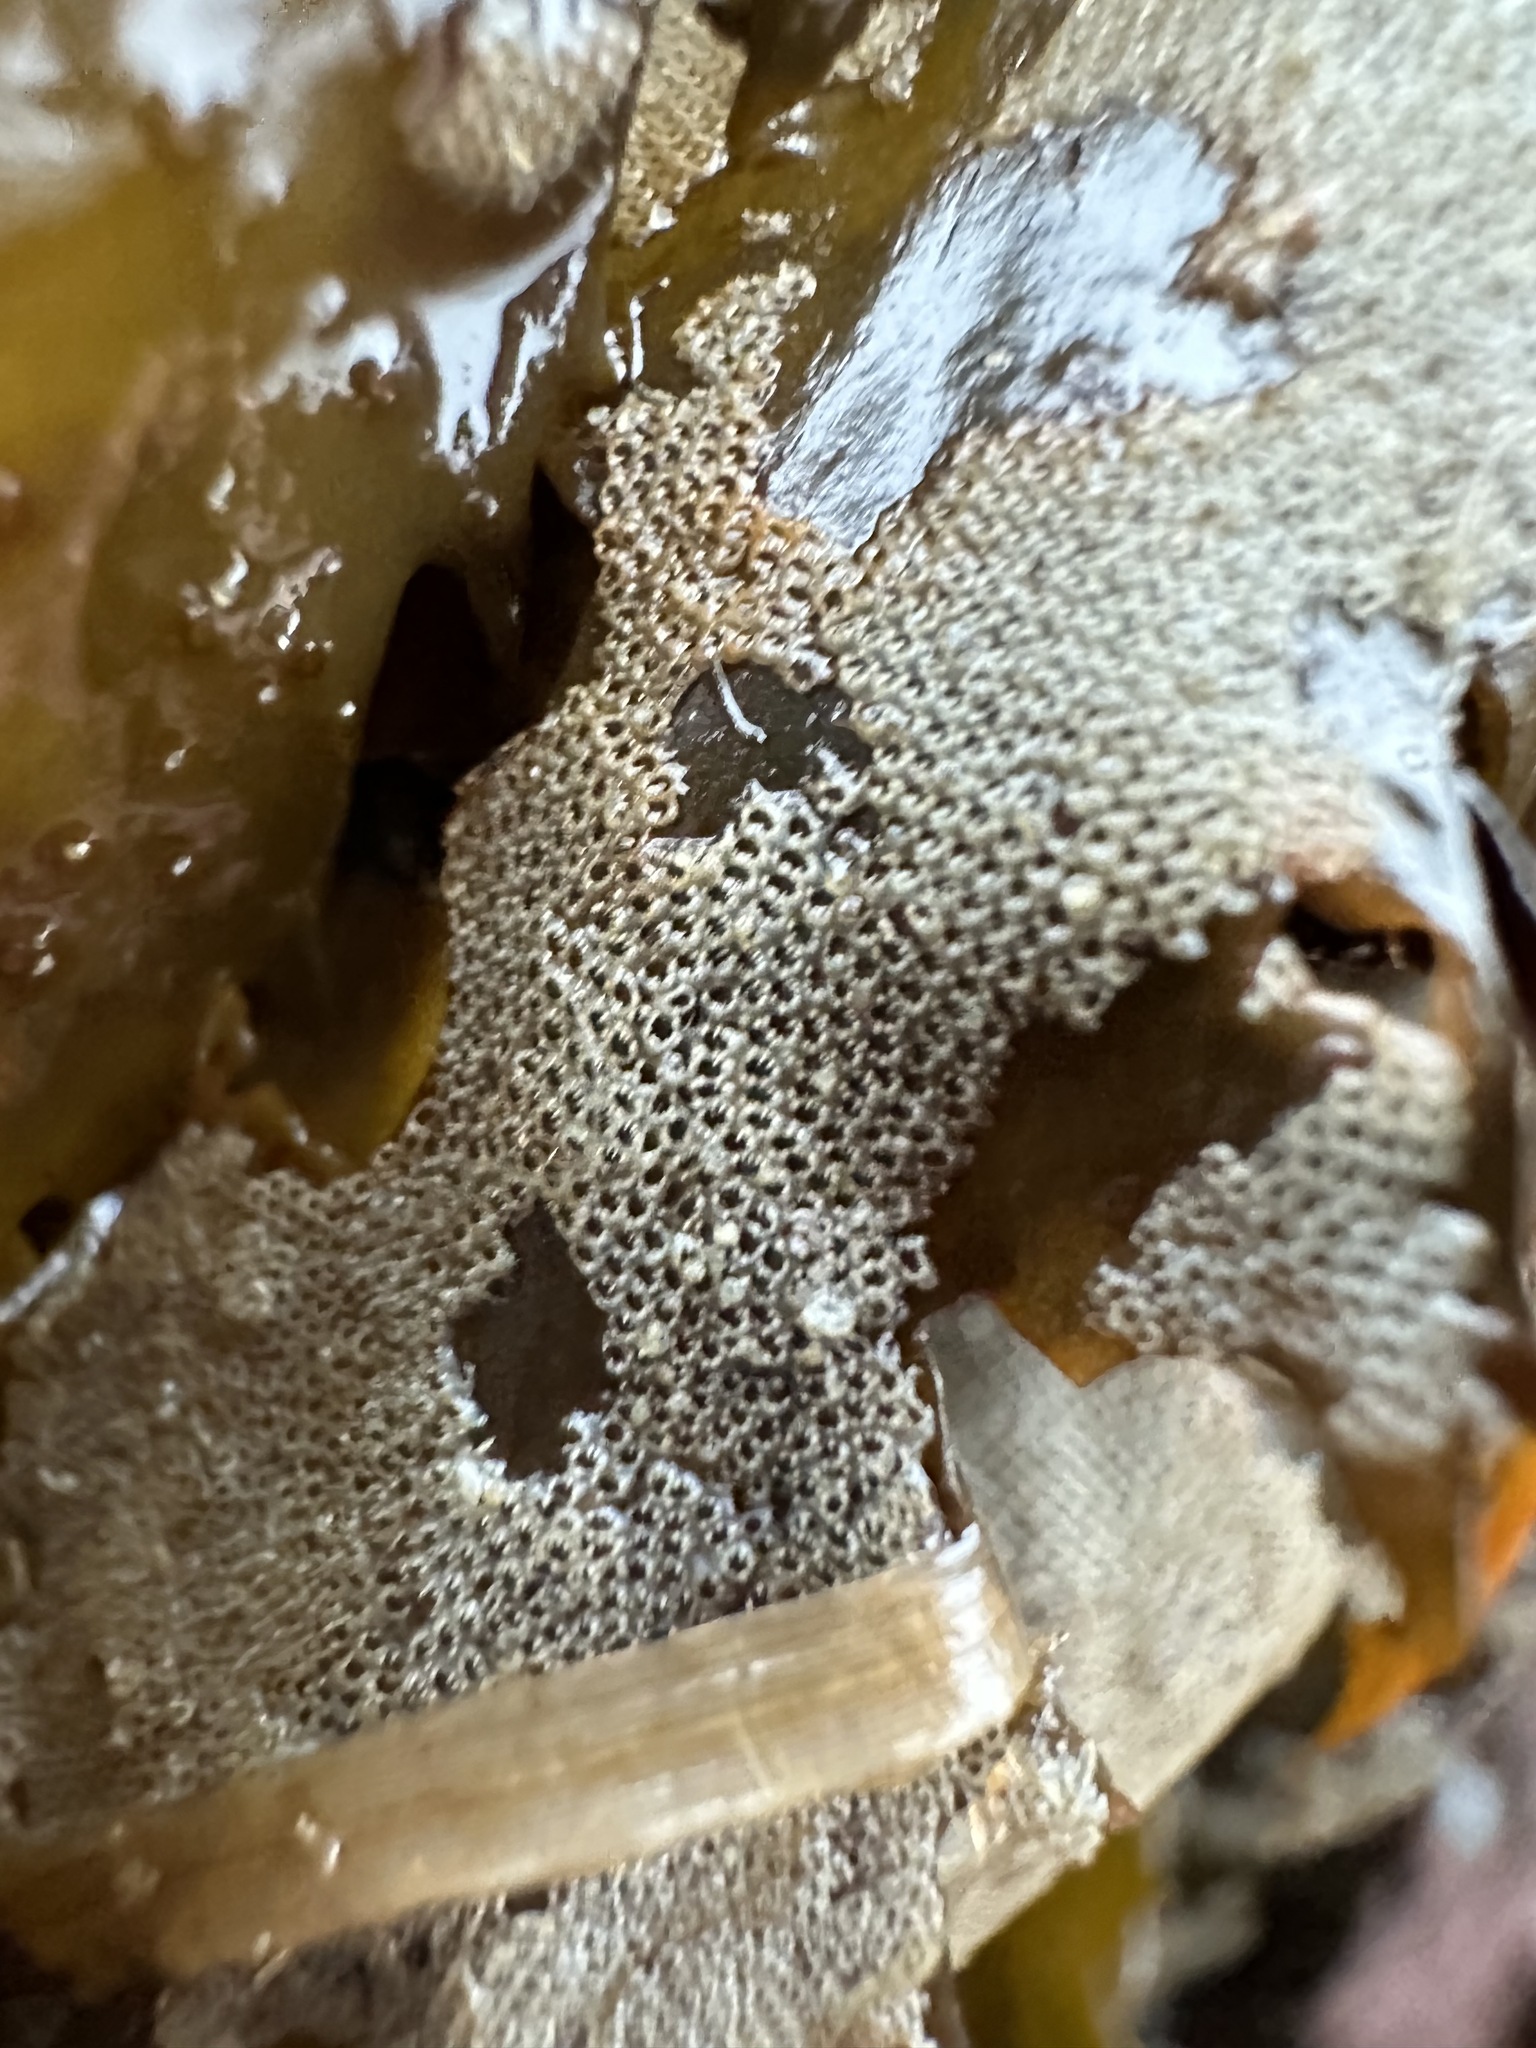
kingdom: Animalia
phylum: Bryozoa
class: Gymnolaemata
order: Cheilostomatida
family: Electridae
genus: Electra
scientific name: Electra pilosa
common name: Hairy sea-mat
